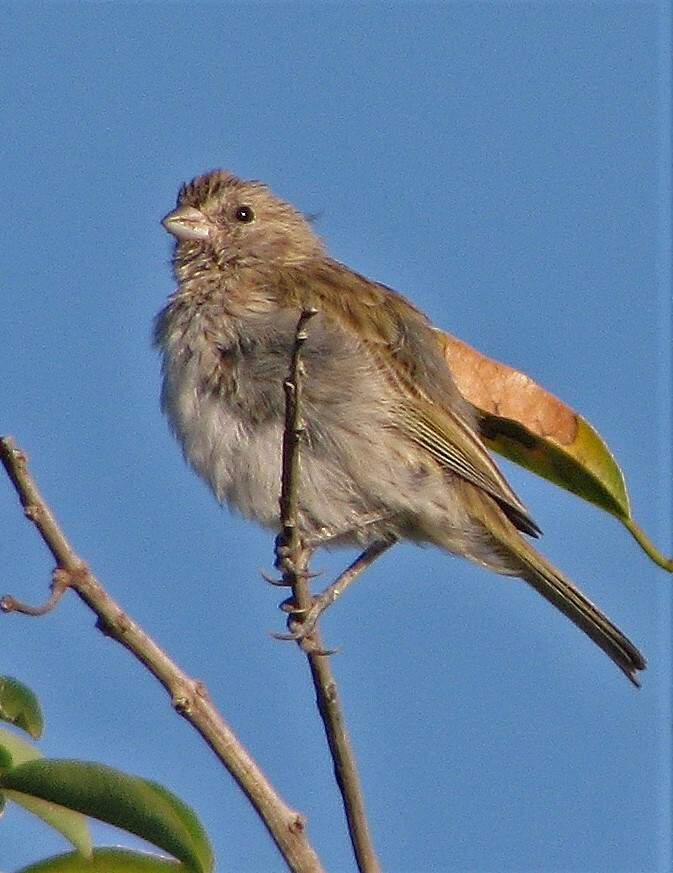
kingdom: Animalia
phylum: Chordata
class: Aves
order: Passeriformes
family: Thraupidae
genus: Sicalis
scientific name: Sicalis flaveola
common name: Saffron finch
